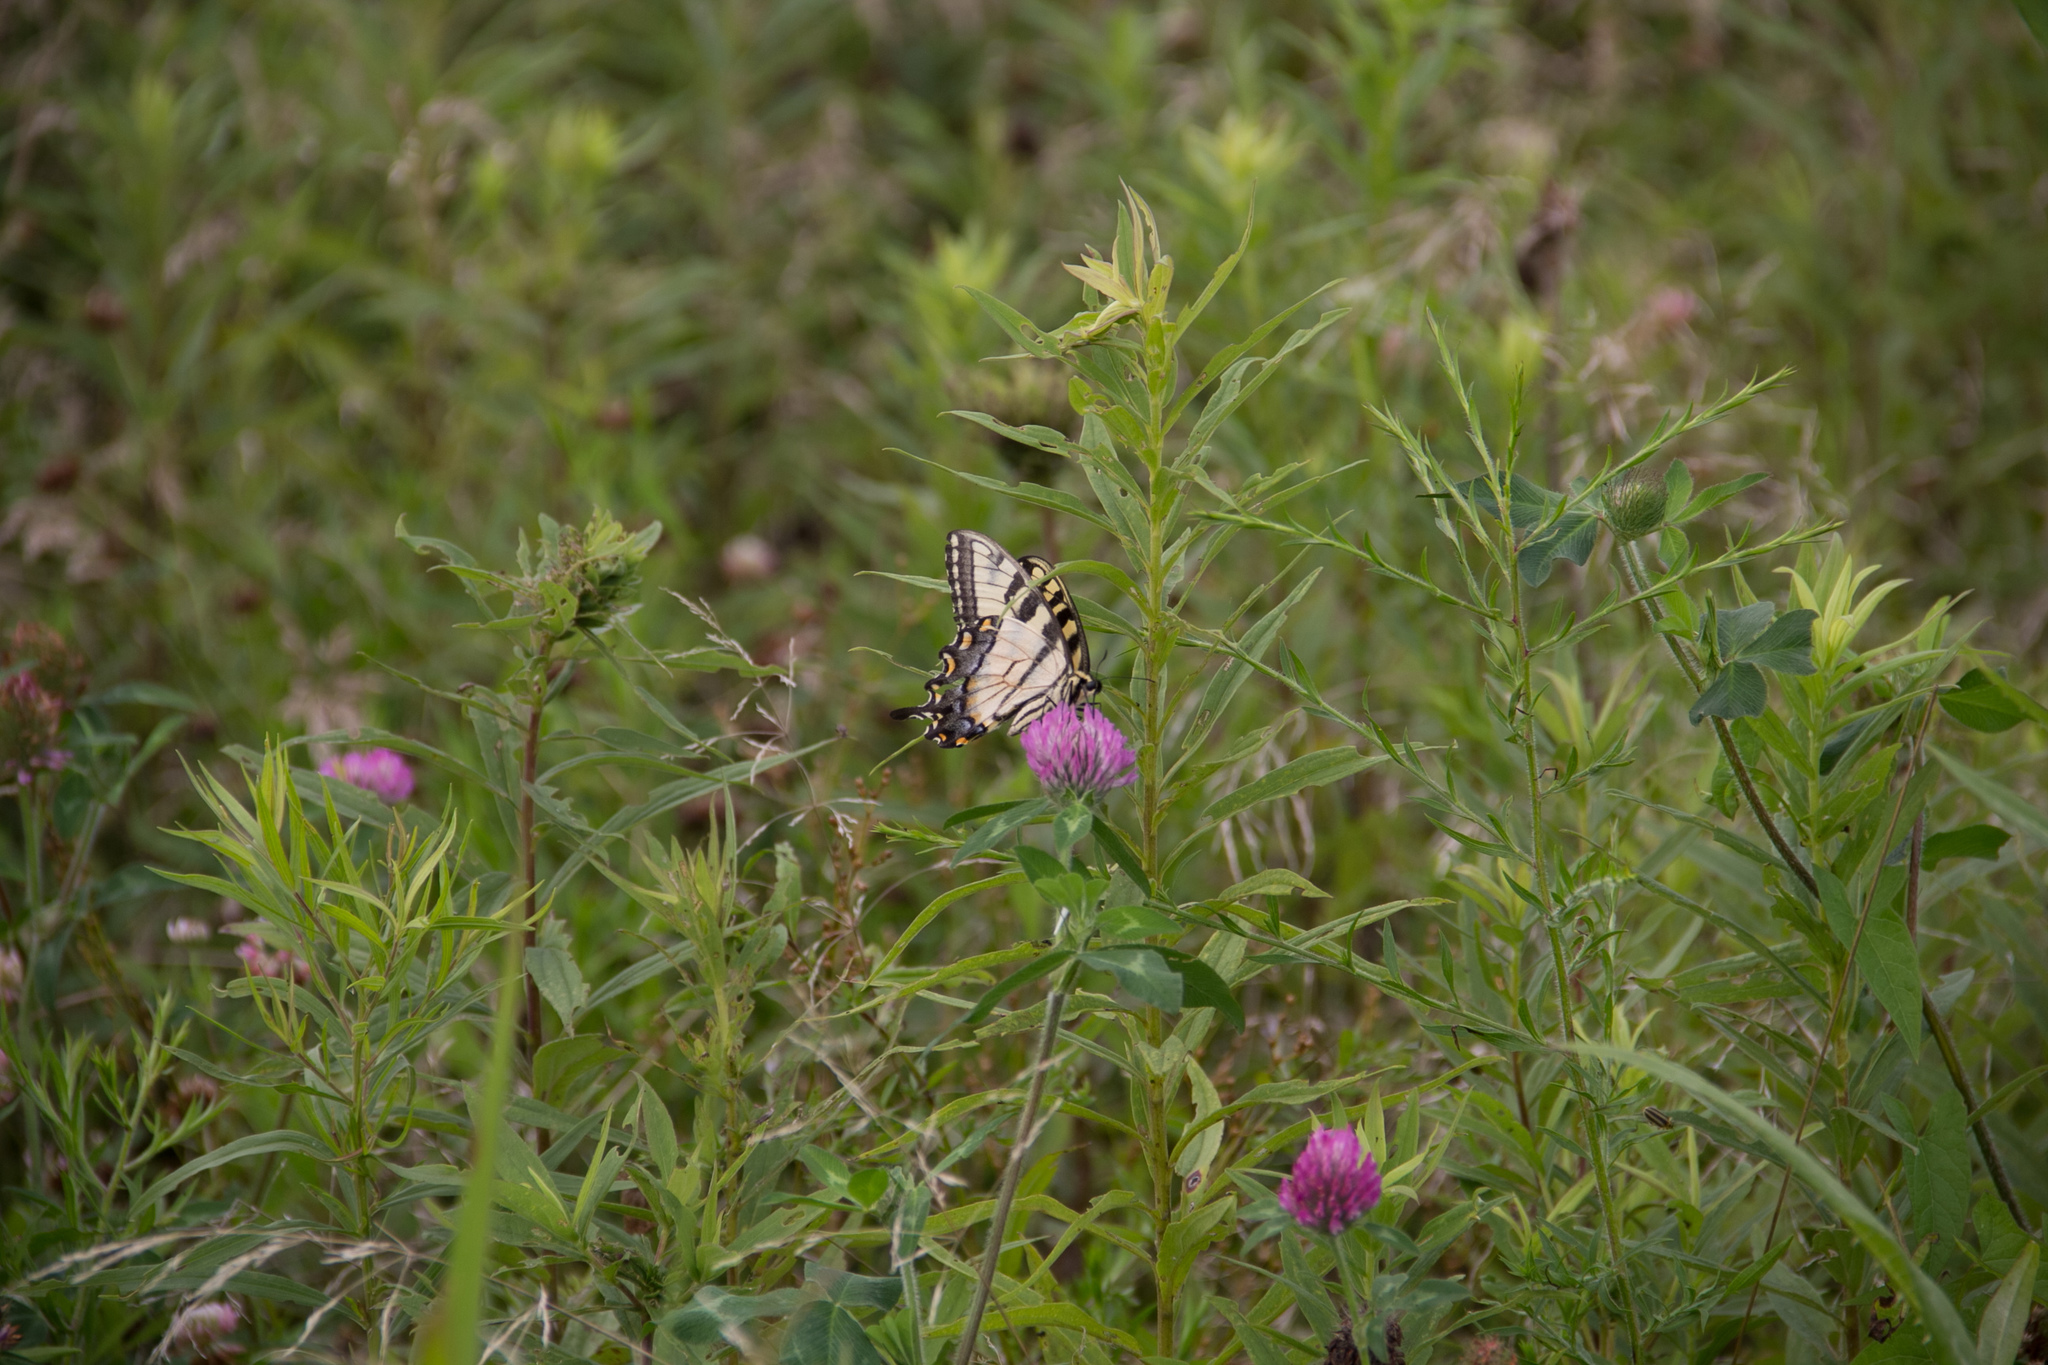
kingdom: Animalia
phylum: Arthropoda
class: Insecta
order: Lepidoptera
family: Papilionidae
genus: Papilio
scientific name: Papilio glaucus
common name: Tiger swallowtail
